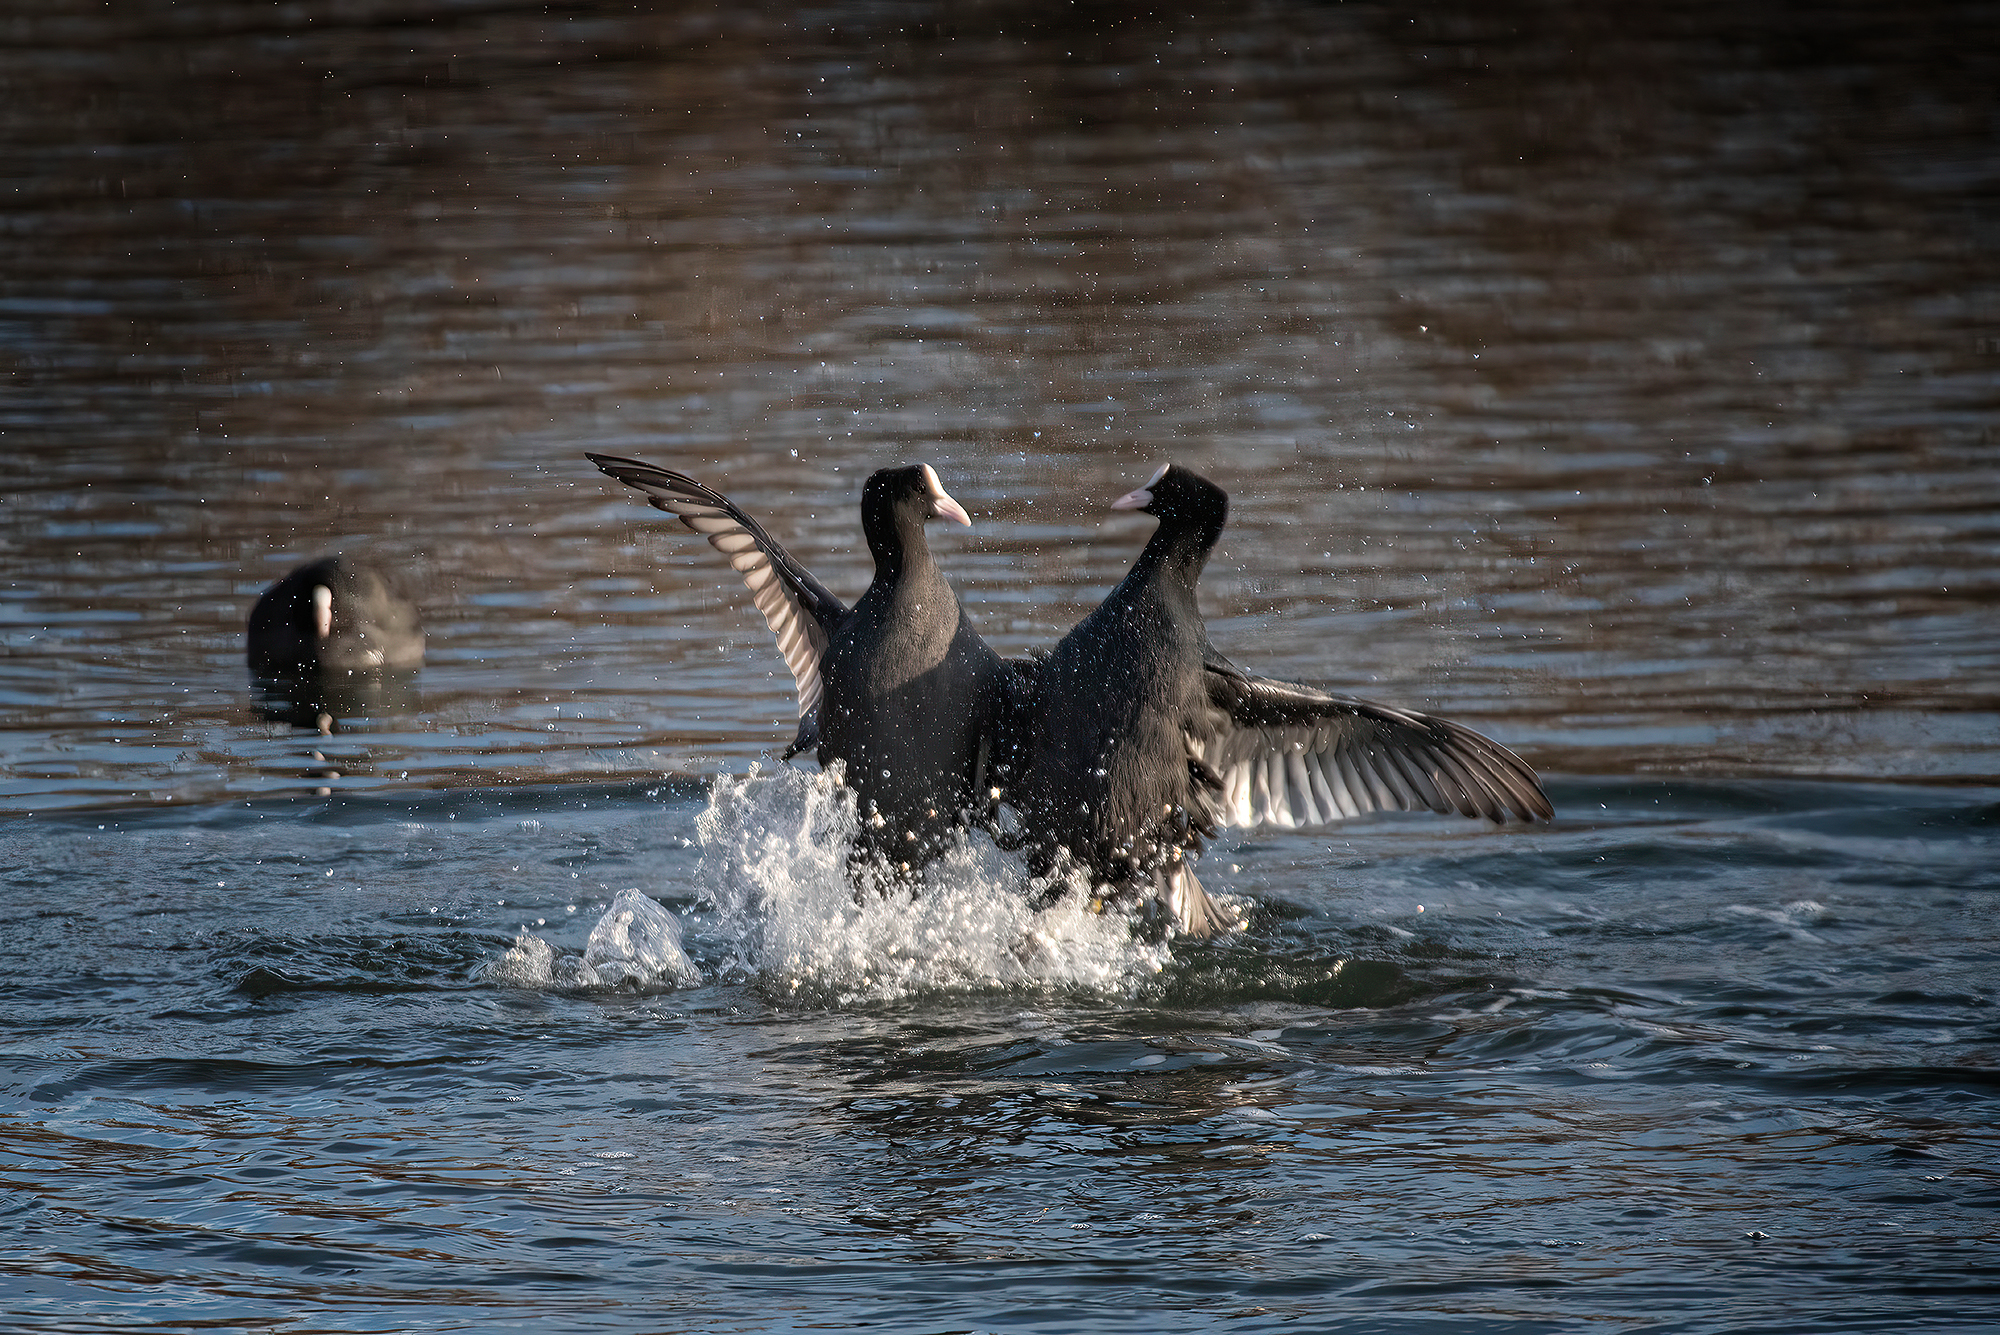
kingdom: Animalia
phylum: Chordata
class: Aves
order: Gruiformes
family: Rallidae
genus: Fulica
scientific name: Fulica atra
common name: Eurasian coot
